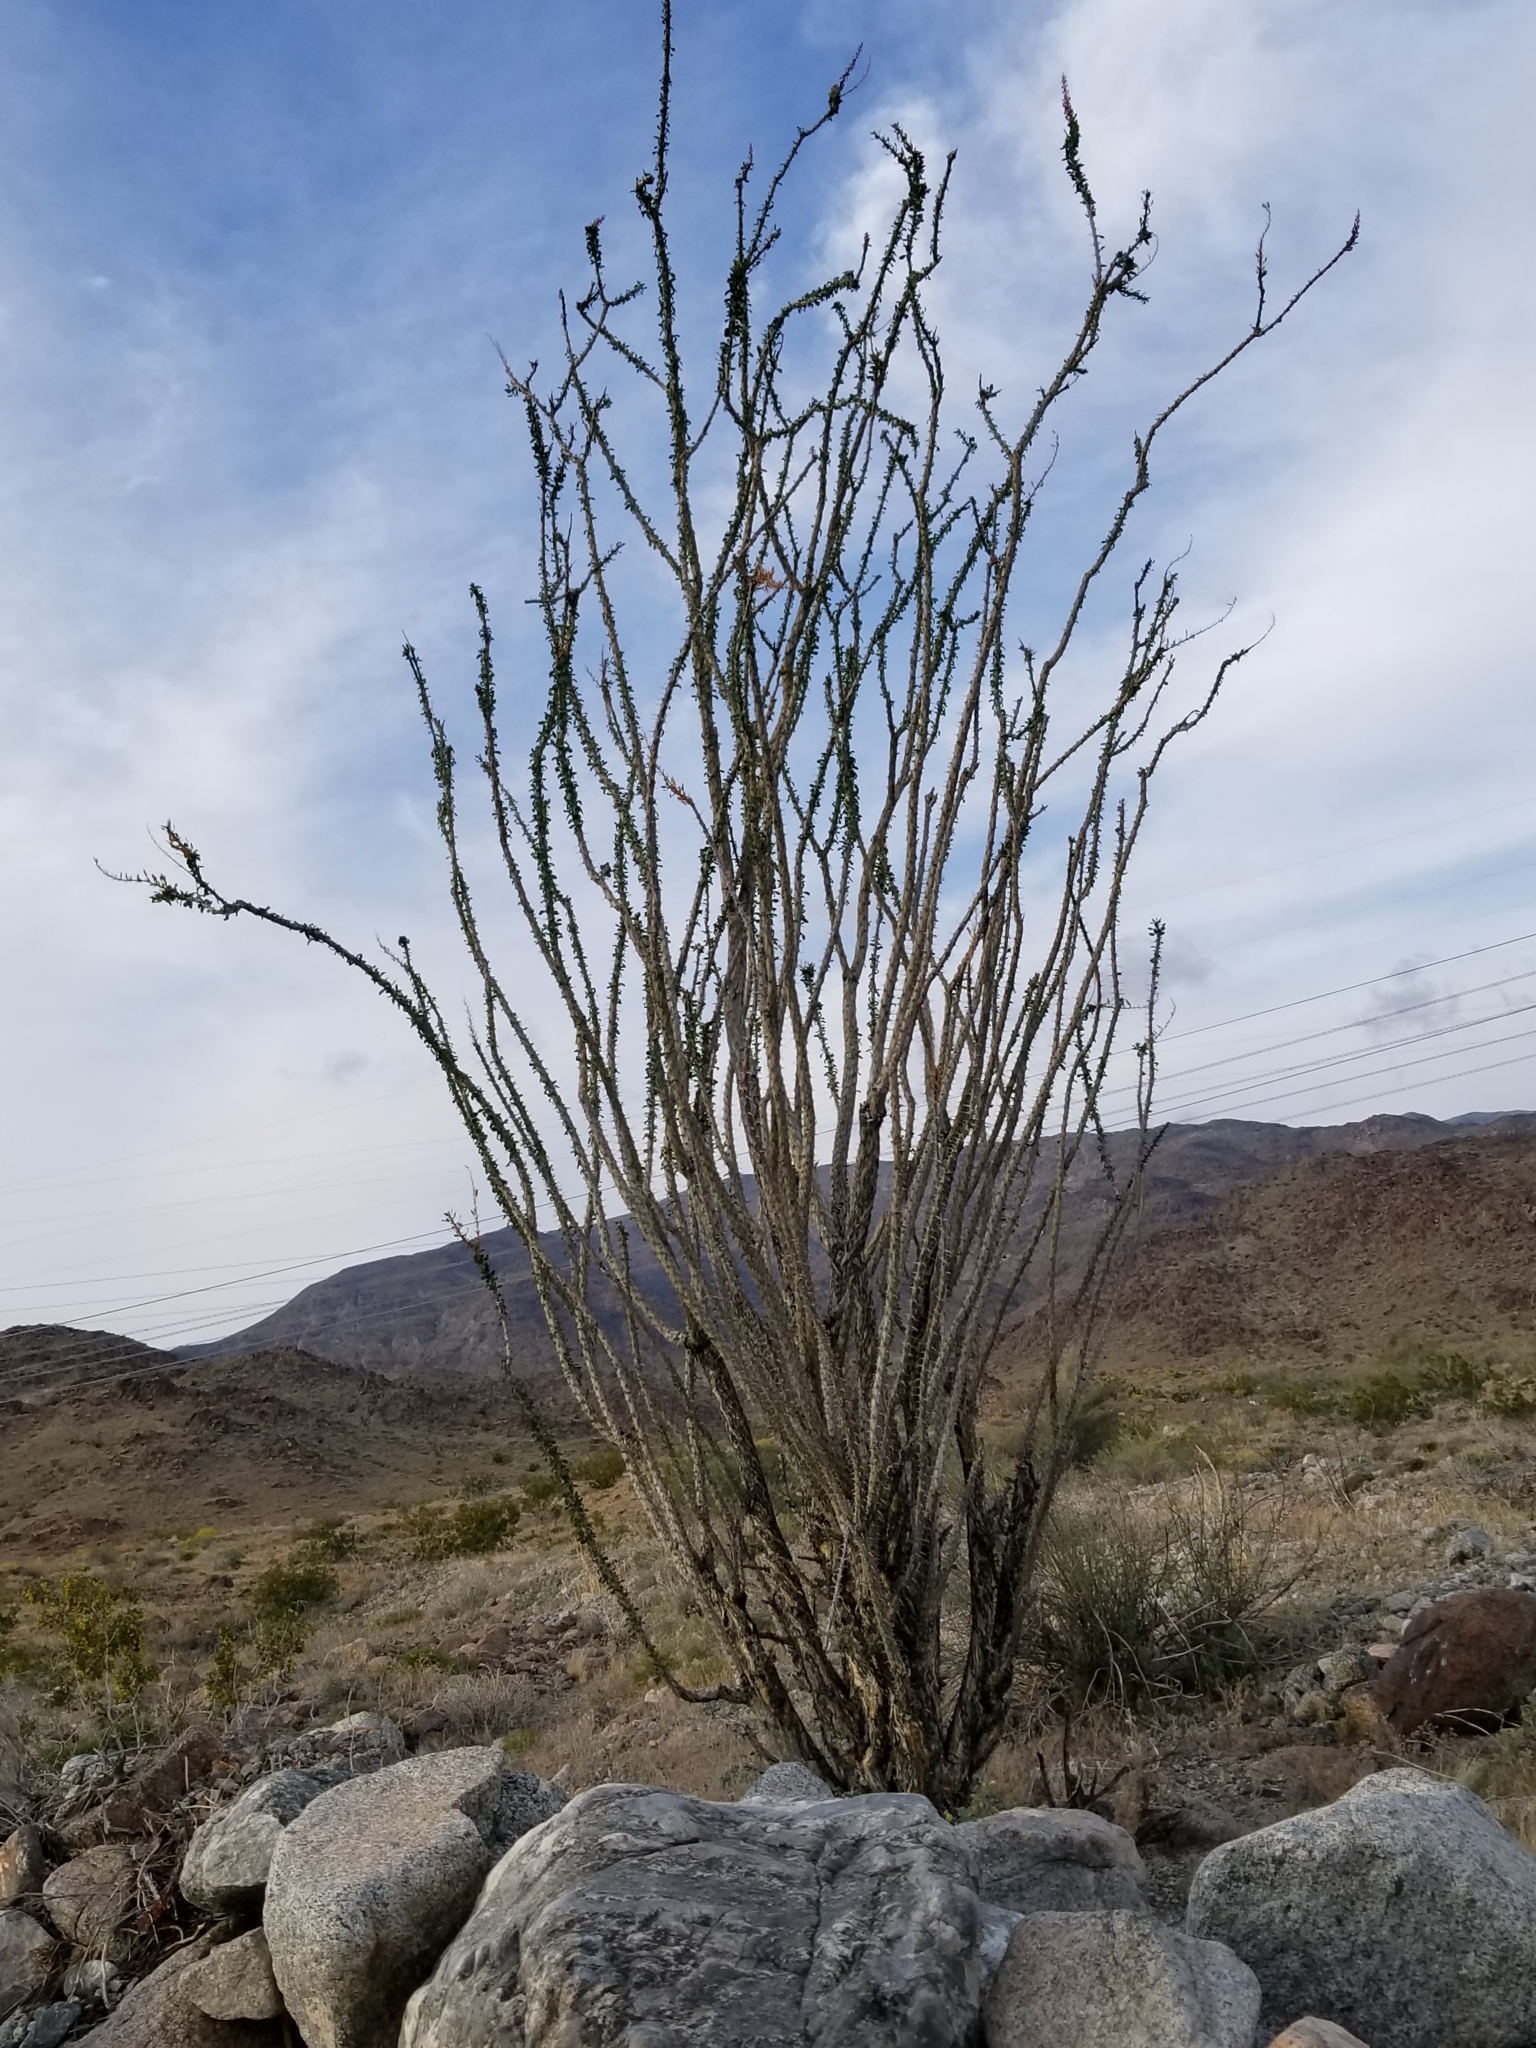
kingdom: Plantae
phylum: Tracheophyta
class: Magnoliopsida
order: Ericales
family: Fouquieriaceae
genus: Fouquieria
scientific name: Fouquieria splendens
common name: Vine-cactus
